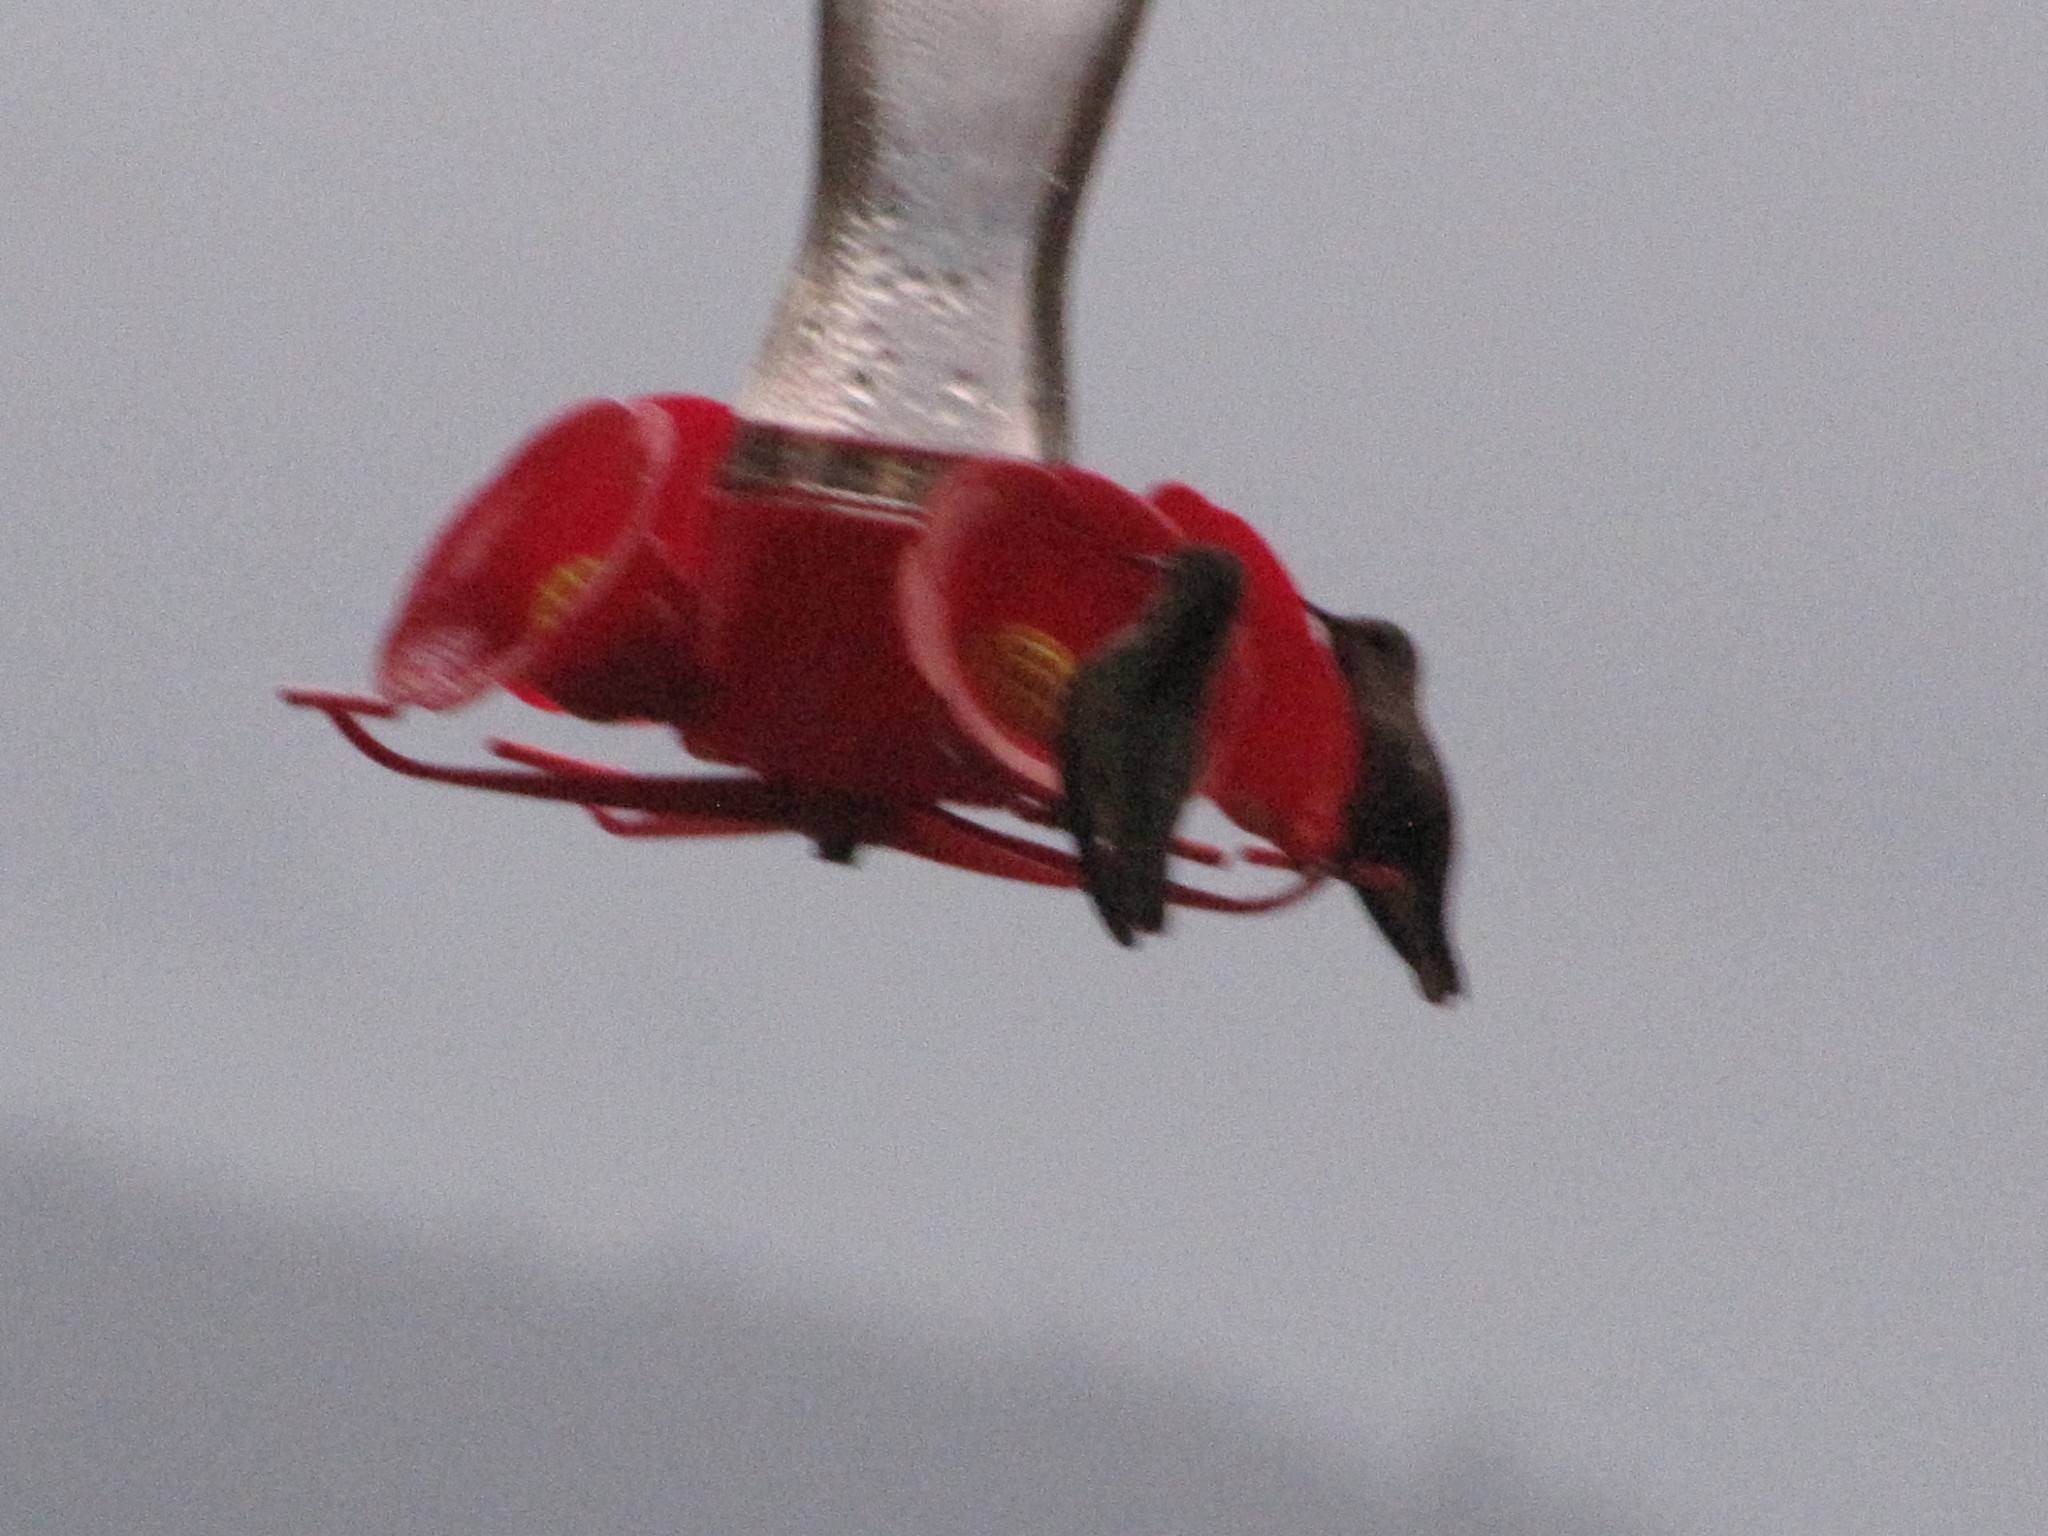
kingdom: Animalia
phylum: Chordata
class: Aves
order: Apodiformes
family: Trochilidae
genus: Calypte
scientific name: Calypte anna
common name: Anna's hummingbird
